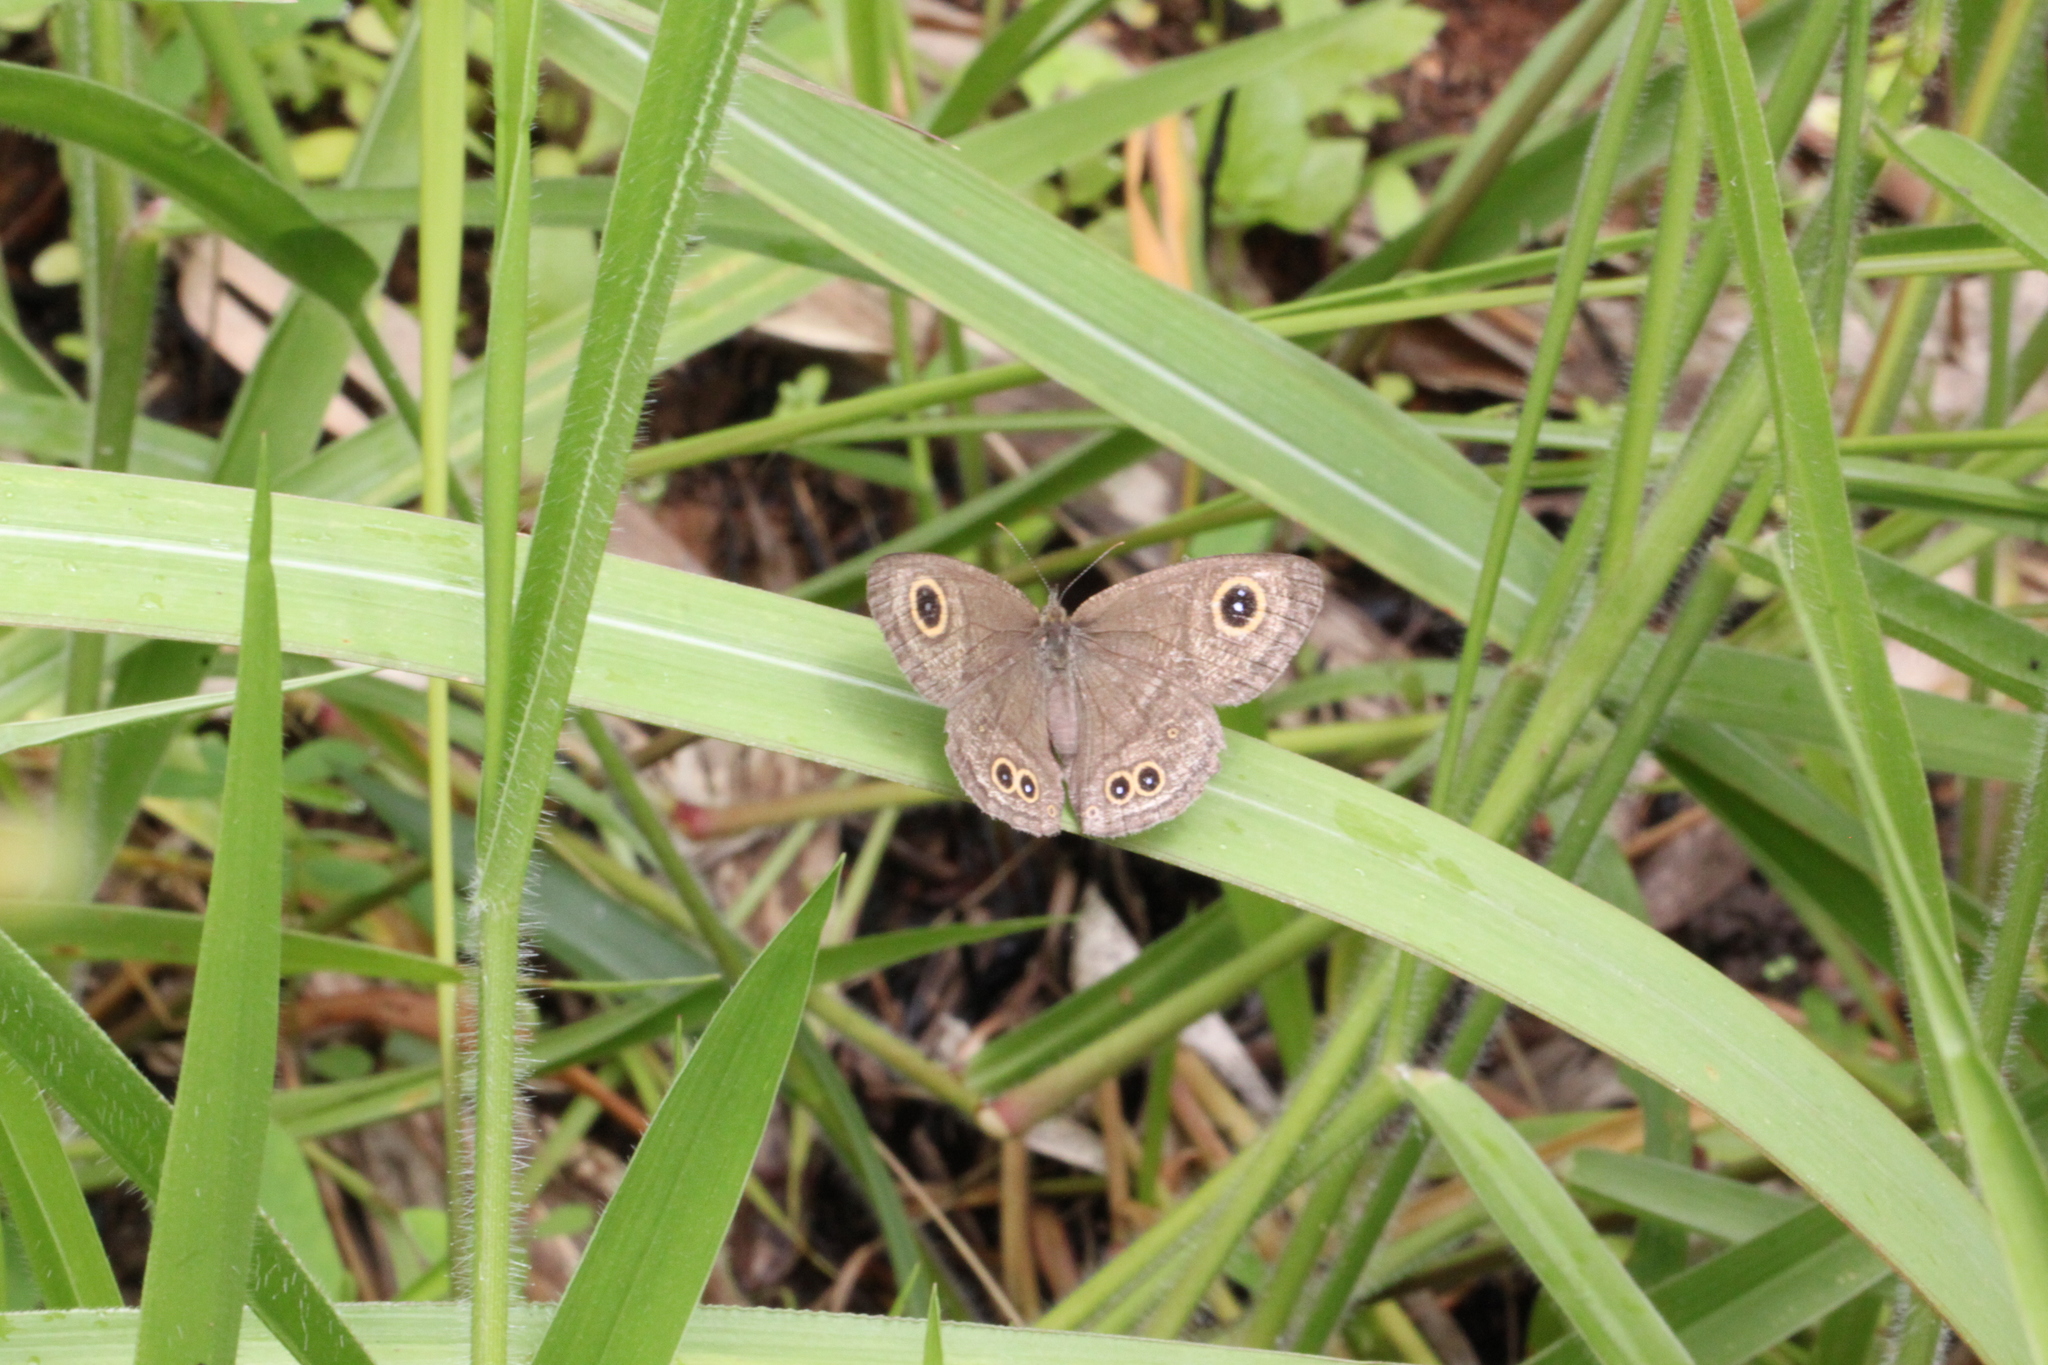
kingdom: Animalia
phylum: Arthropoda
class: Insecta
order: Lepidoptera
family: Nymphalidae
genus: Ypthima
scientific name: Ypthima baldus
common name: Common five-ring
